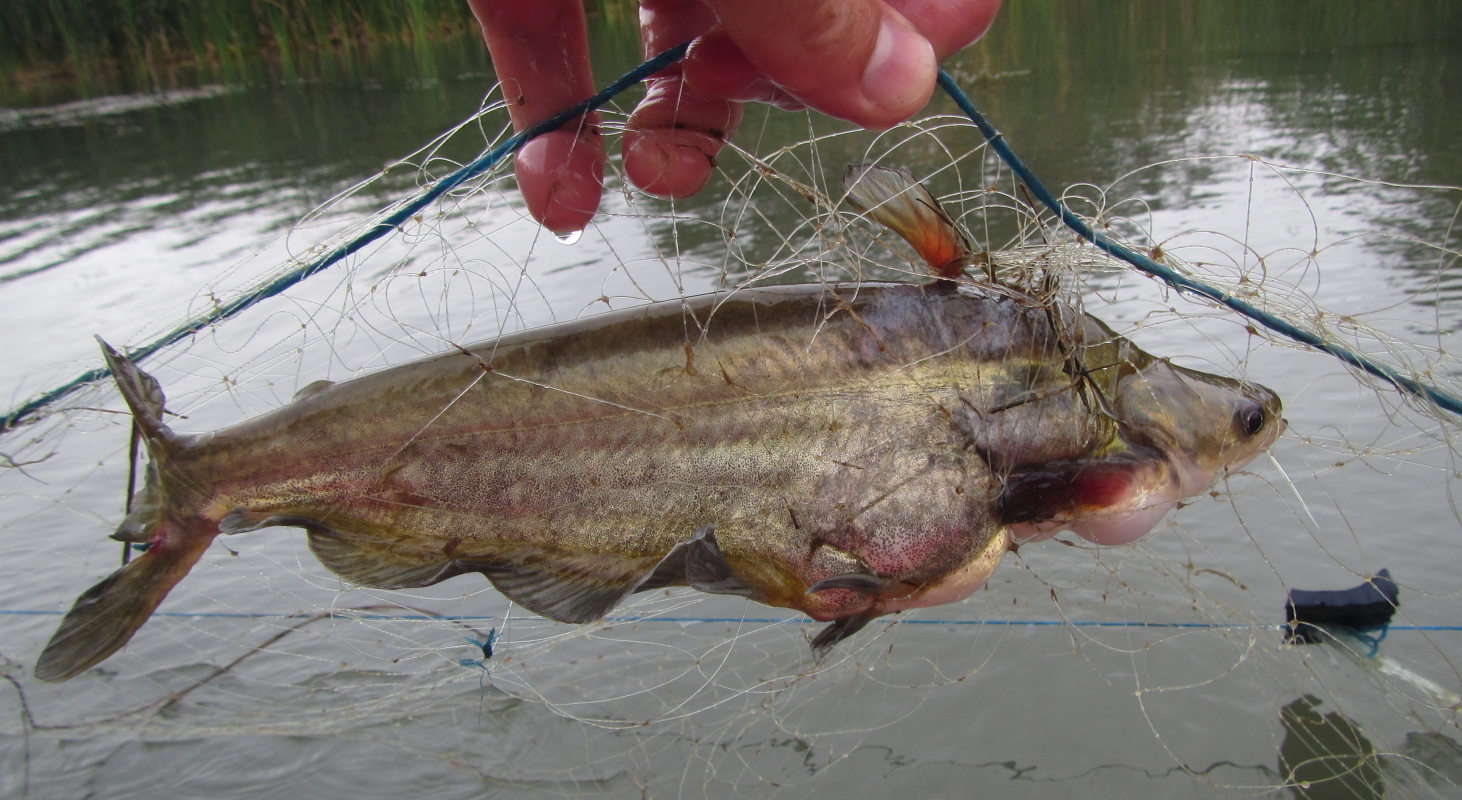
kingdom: Animalia
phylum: Chordata
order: Siluriformes
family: Schilbeidae
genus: Schilbe
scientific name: Schilbe intermedius
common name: Silver catfish
